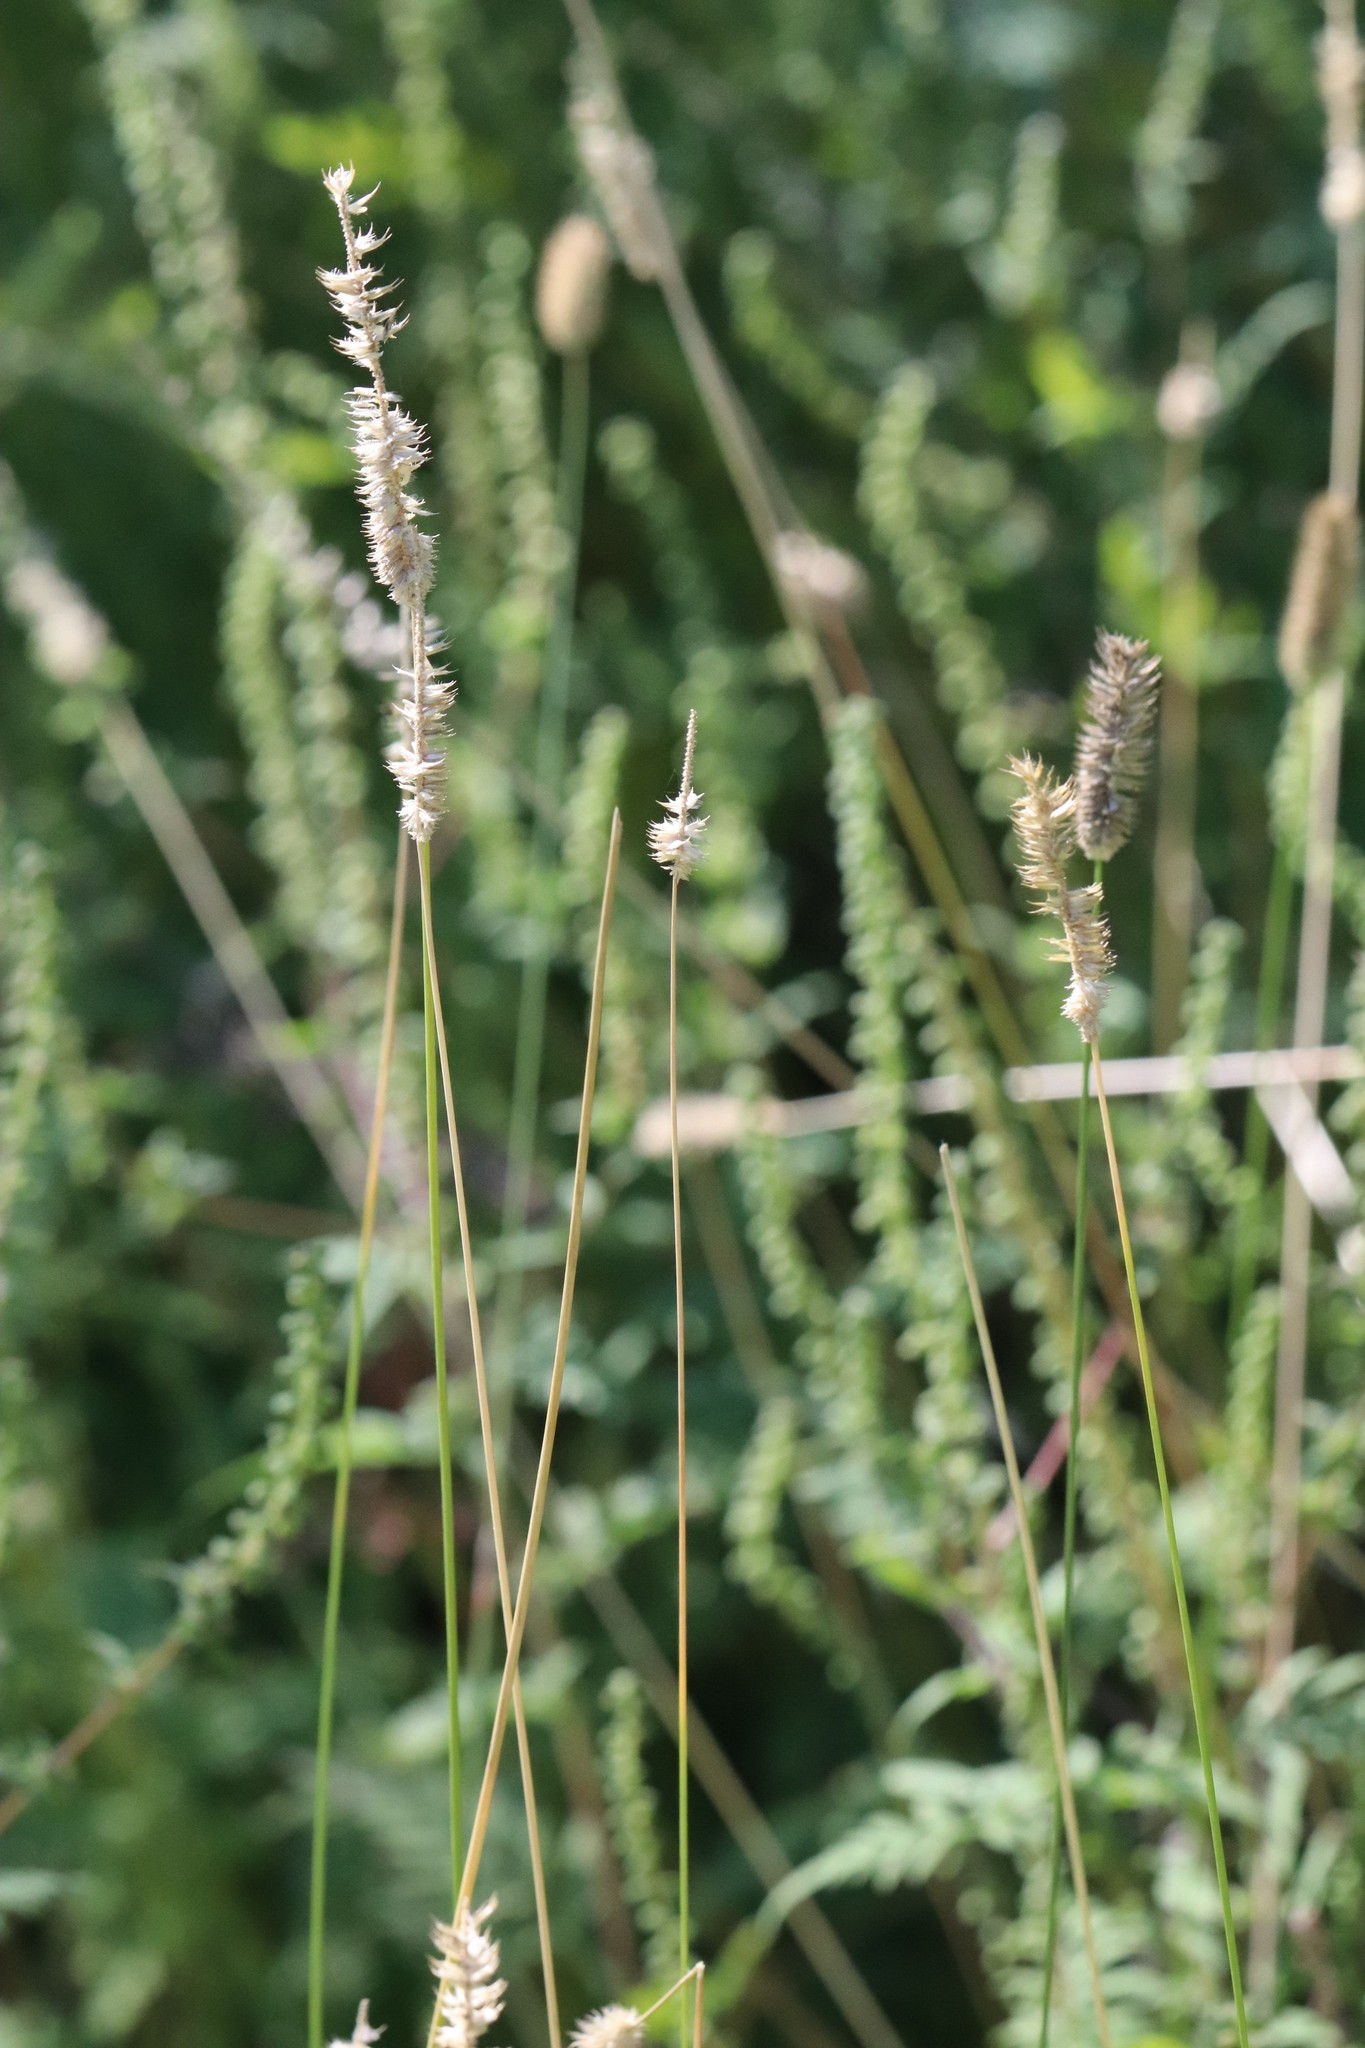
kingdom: Plantae
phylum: Tracheophyta
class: Liliopsida
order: Poales
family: Poaceae
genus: Phleum
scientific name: Phleum pratense
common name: Timothy grass
